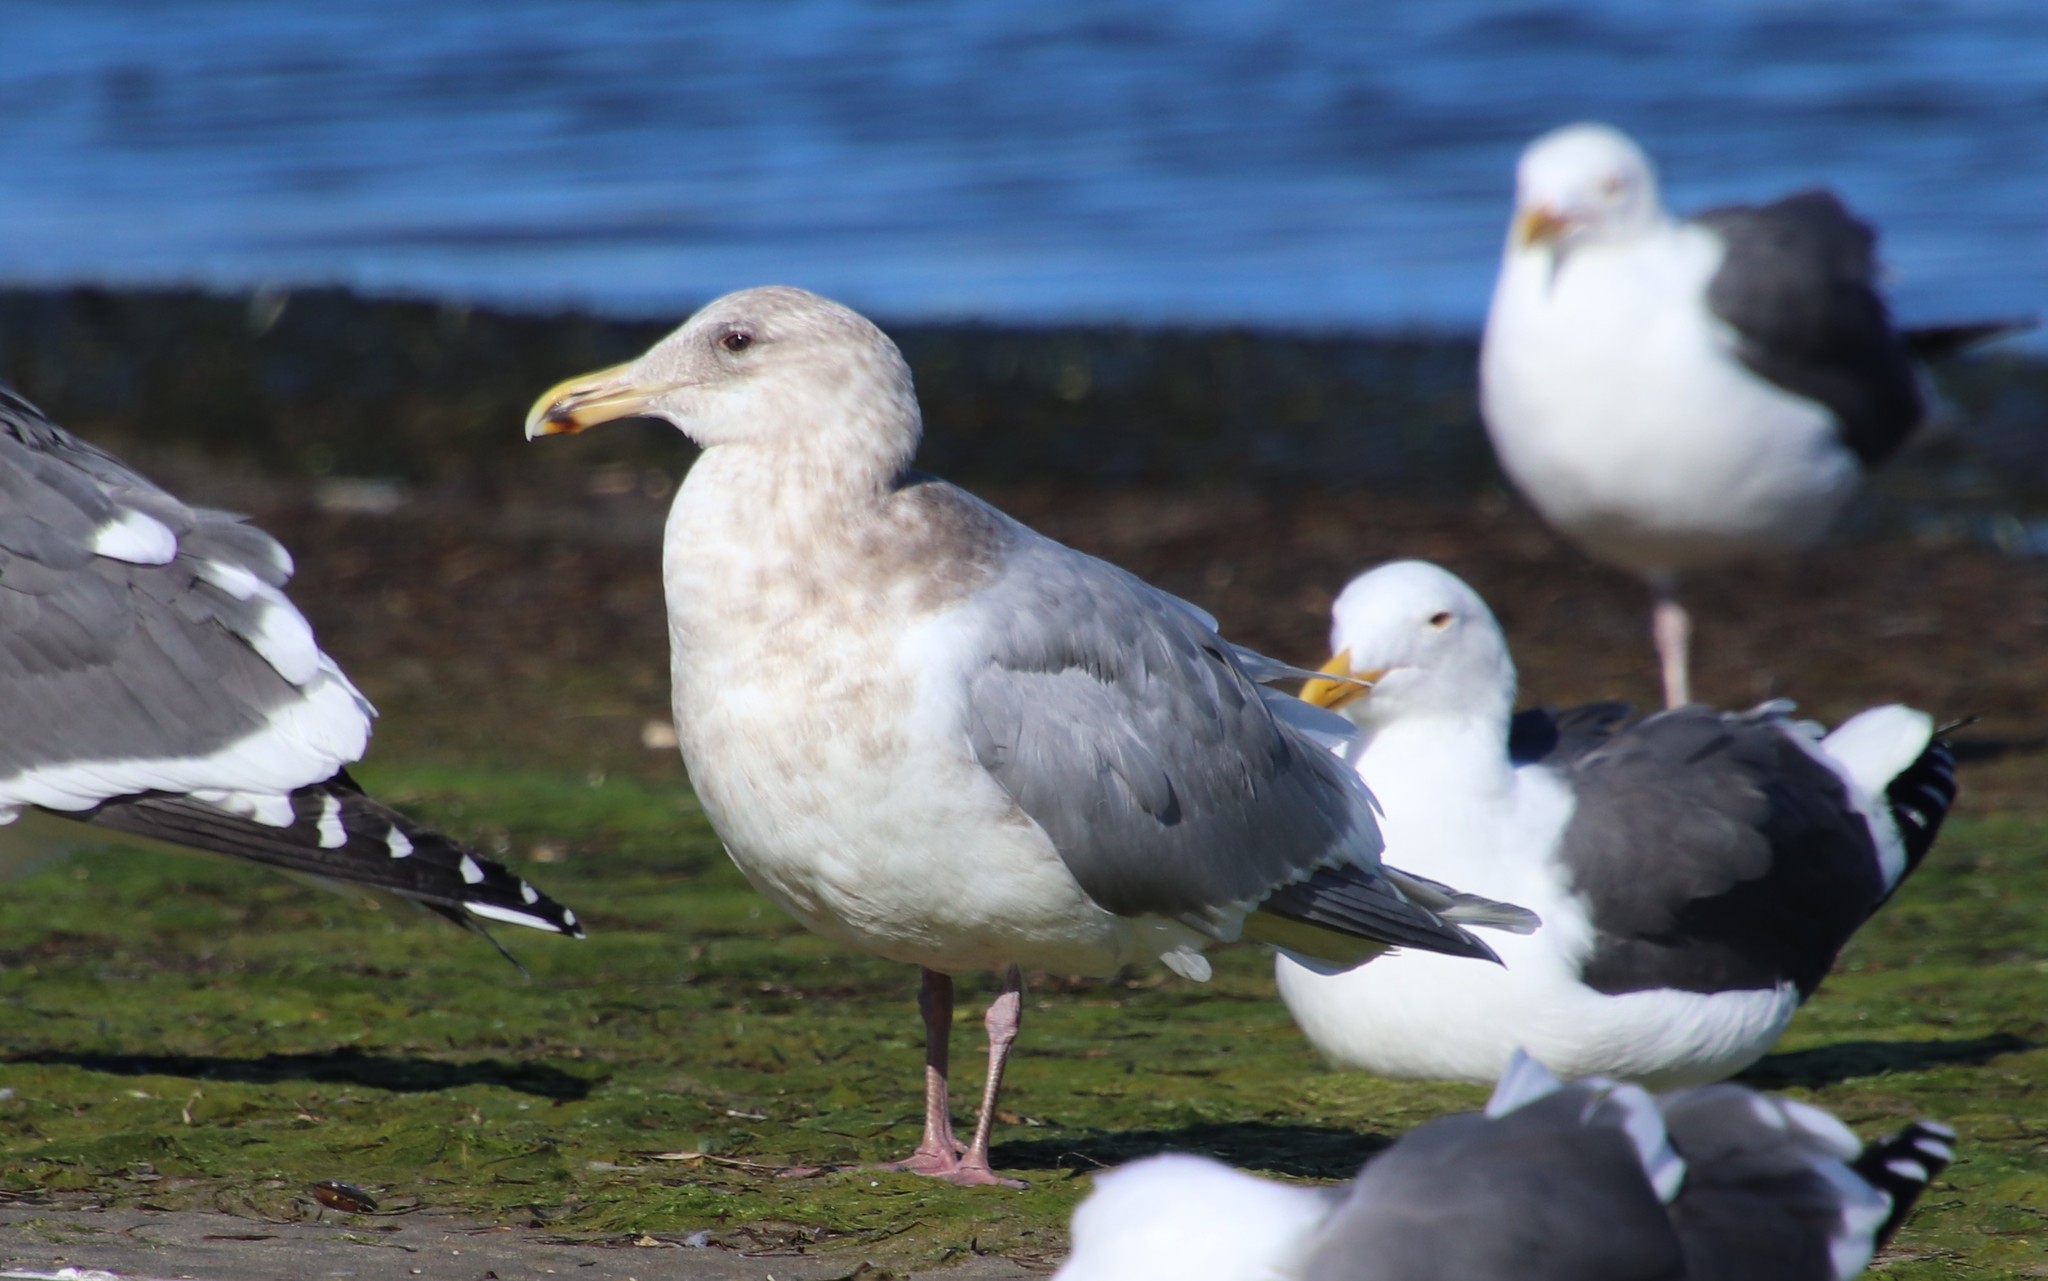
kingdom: Animalia
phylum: Chordata
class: Aves
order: Charadriiformes
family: Laridae
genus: Larus
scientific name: Larus glaucescens
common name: Glaucous-winged gull
